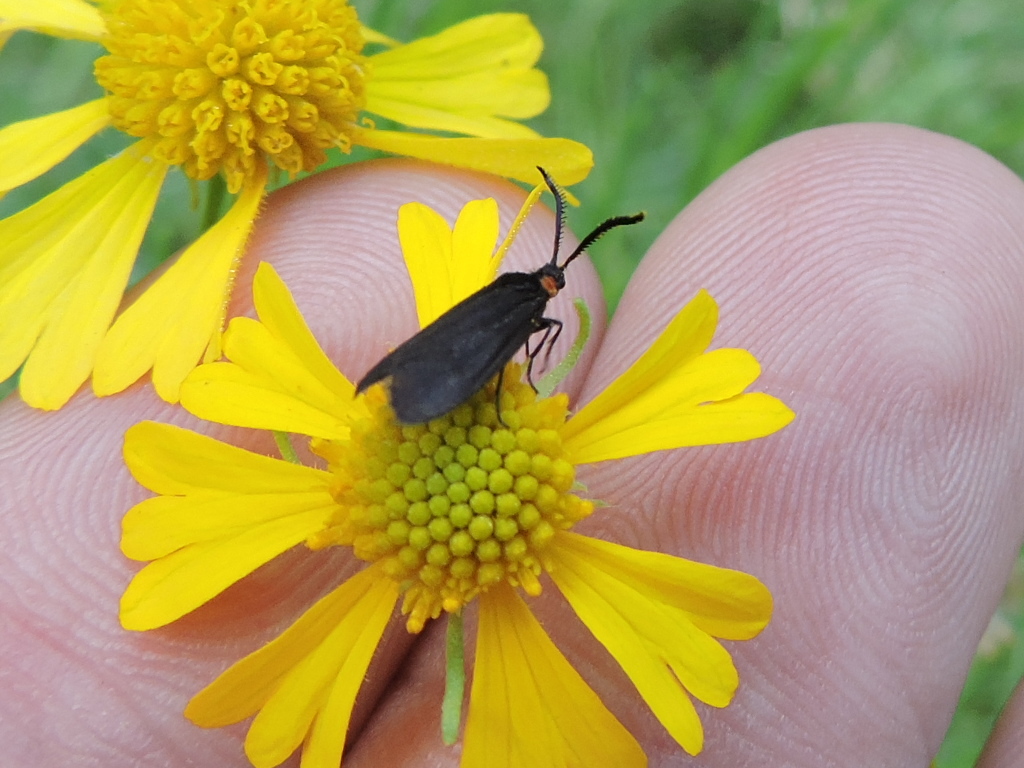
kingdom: Animalia
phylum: Arthropoda
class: Insecta
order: Lepidoptera
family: Zygaenidae
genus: Acoloithus
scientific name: Acoloithus falsarius
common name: Clemens' false skeletonizer
